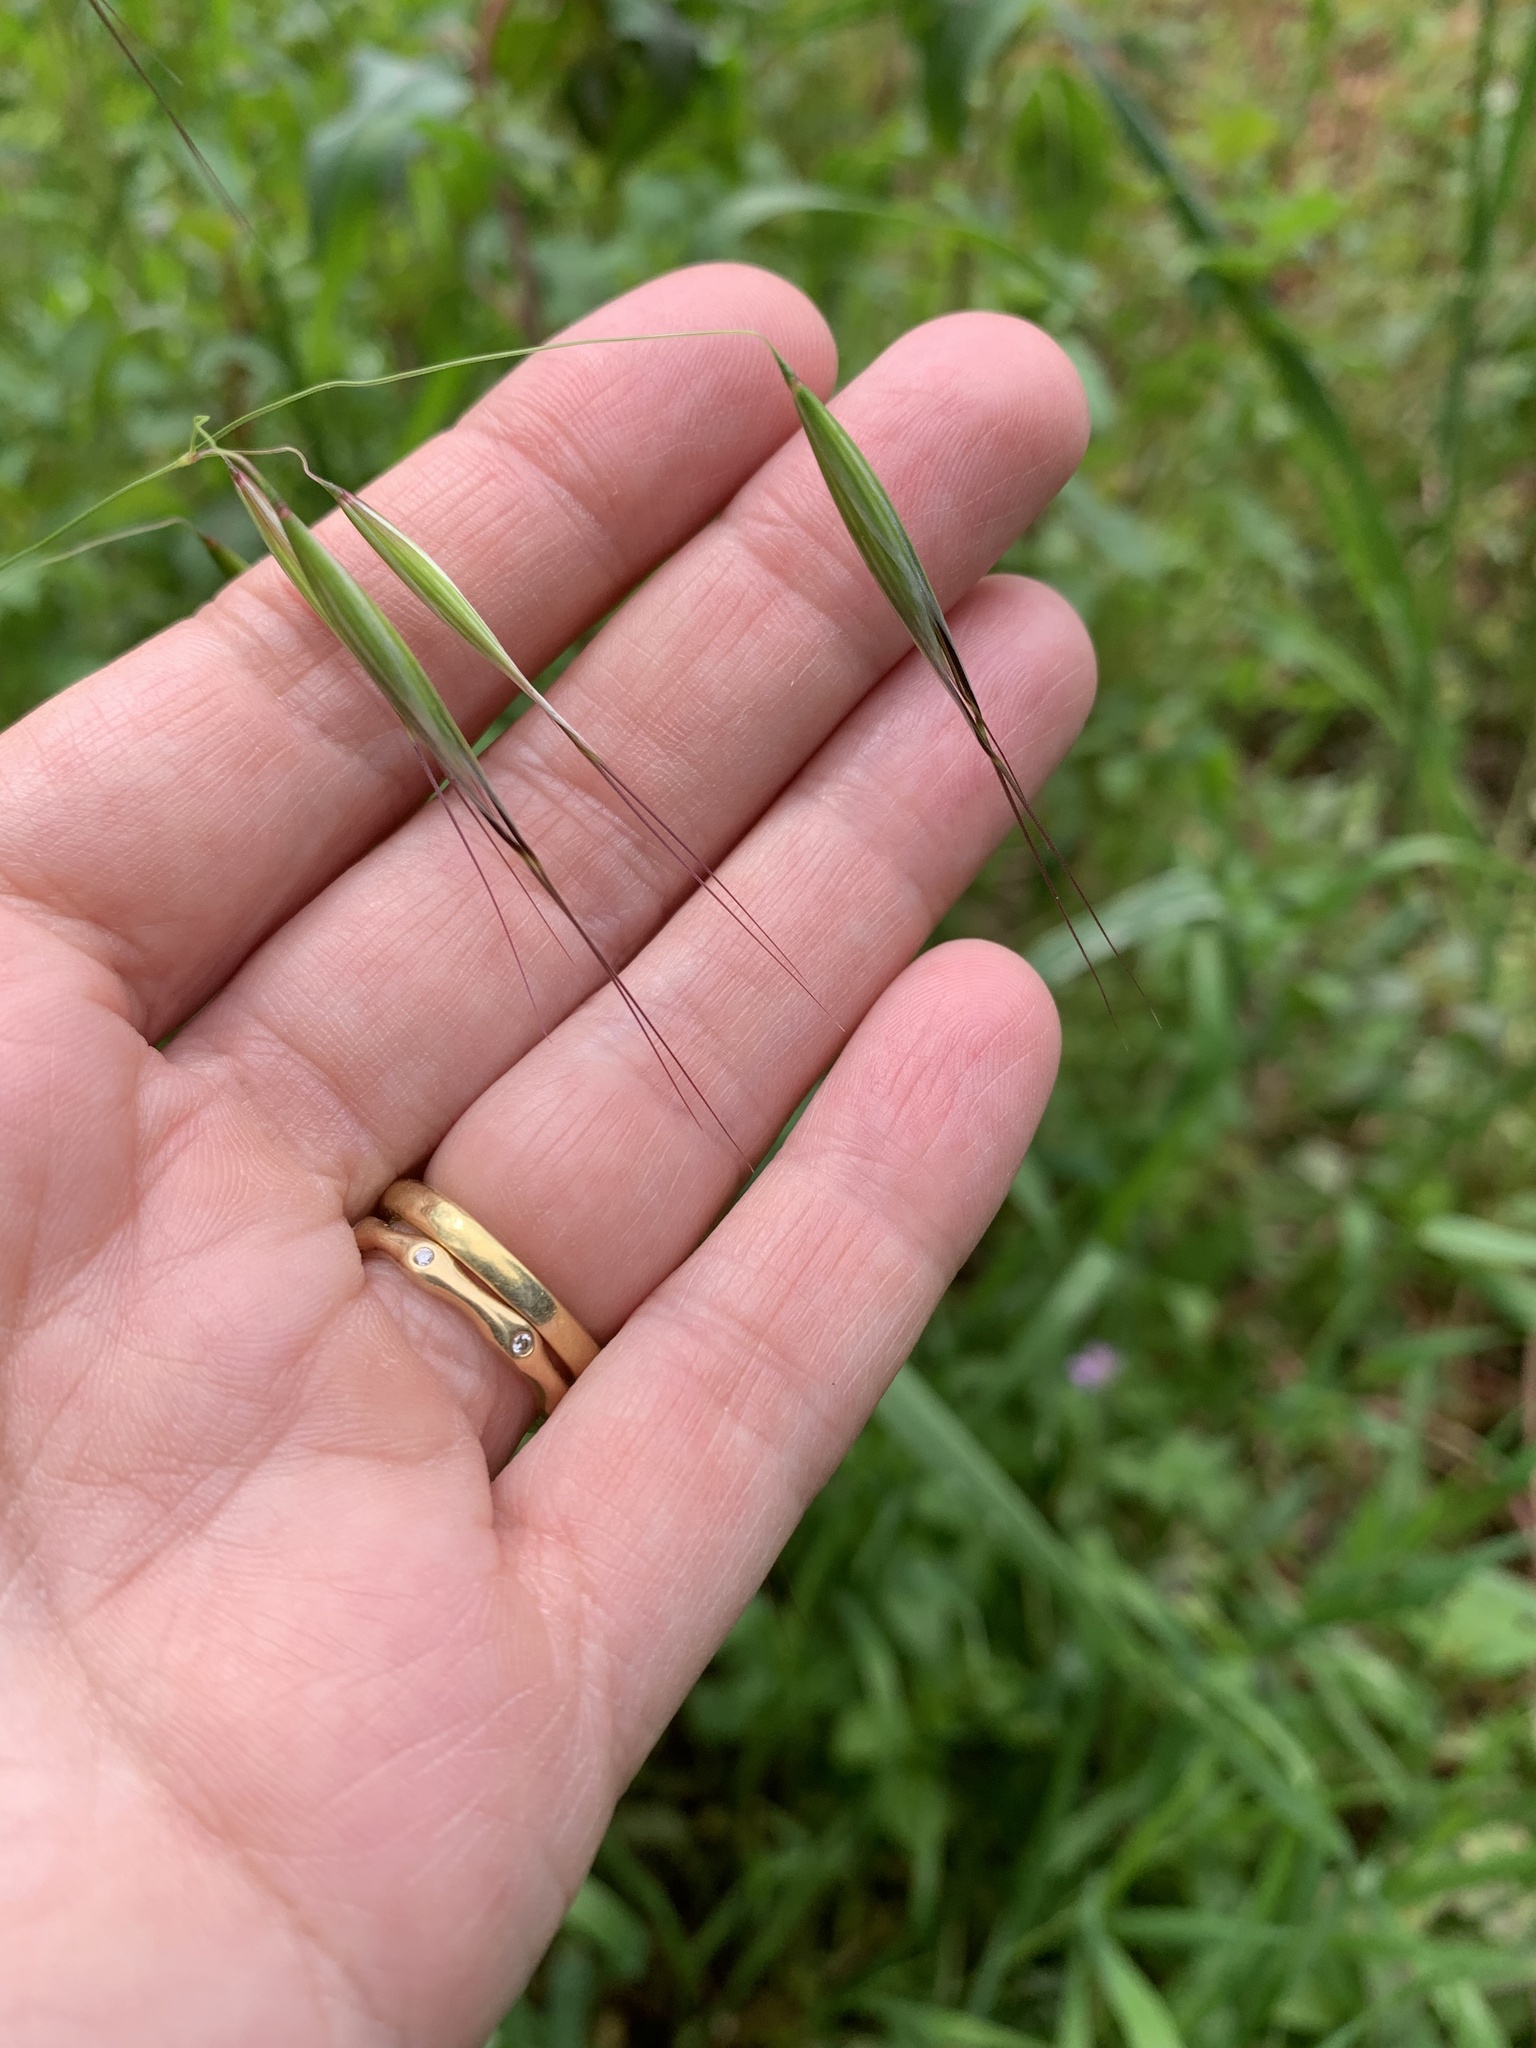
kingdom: Plantae
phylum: Tracheophyta
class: Liliopsida
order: Poales
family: Poaceae
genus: Avena
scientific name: Avena barbata
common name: Slender oat
